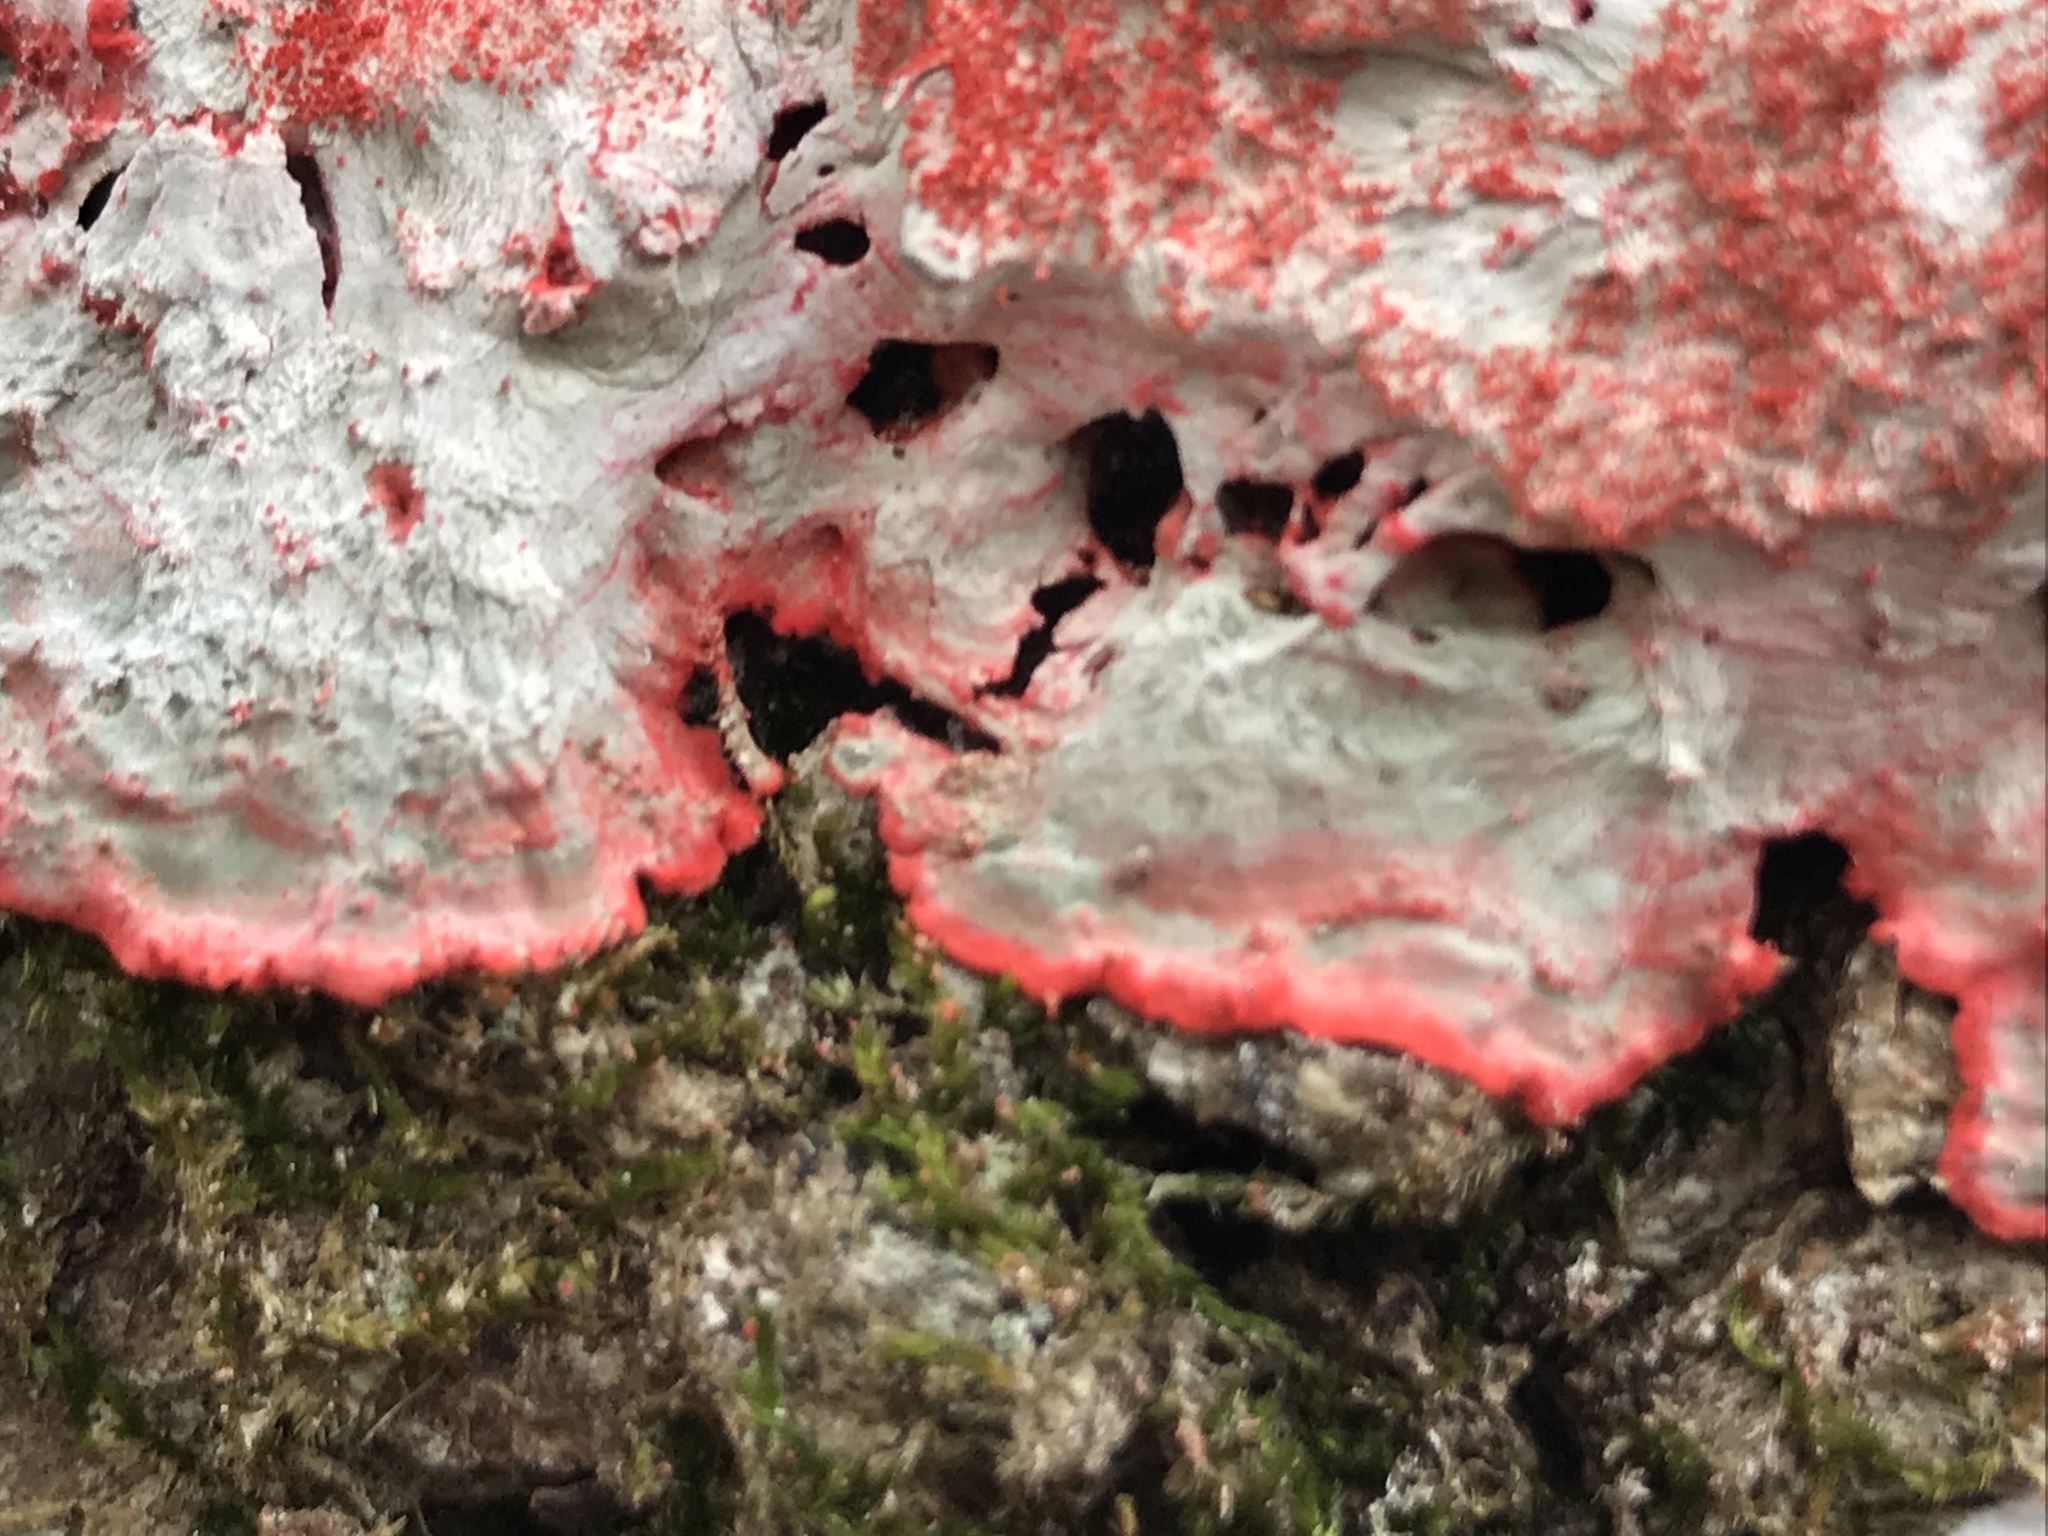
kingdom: Fungi
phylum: Ascomycota
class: Arthoniomycetes
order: Arthoniales
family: Arthoniaceae
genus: Herpothallon
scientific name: Herpothallon rubrocinctum
